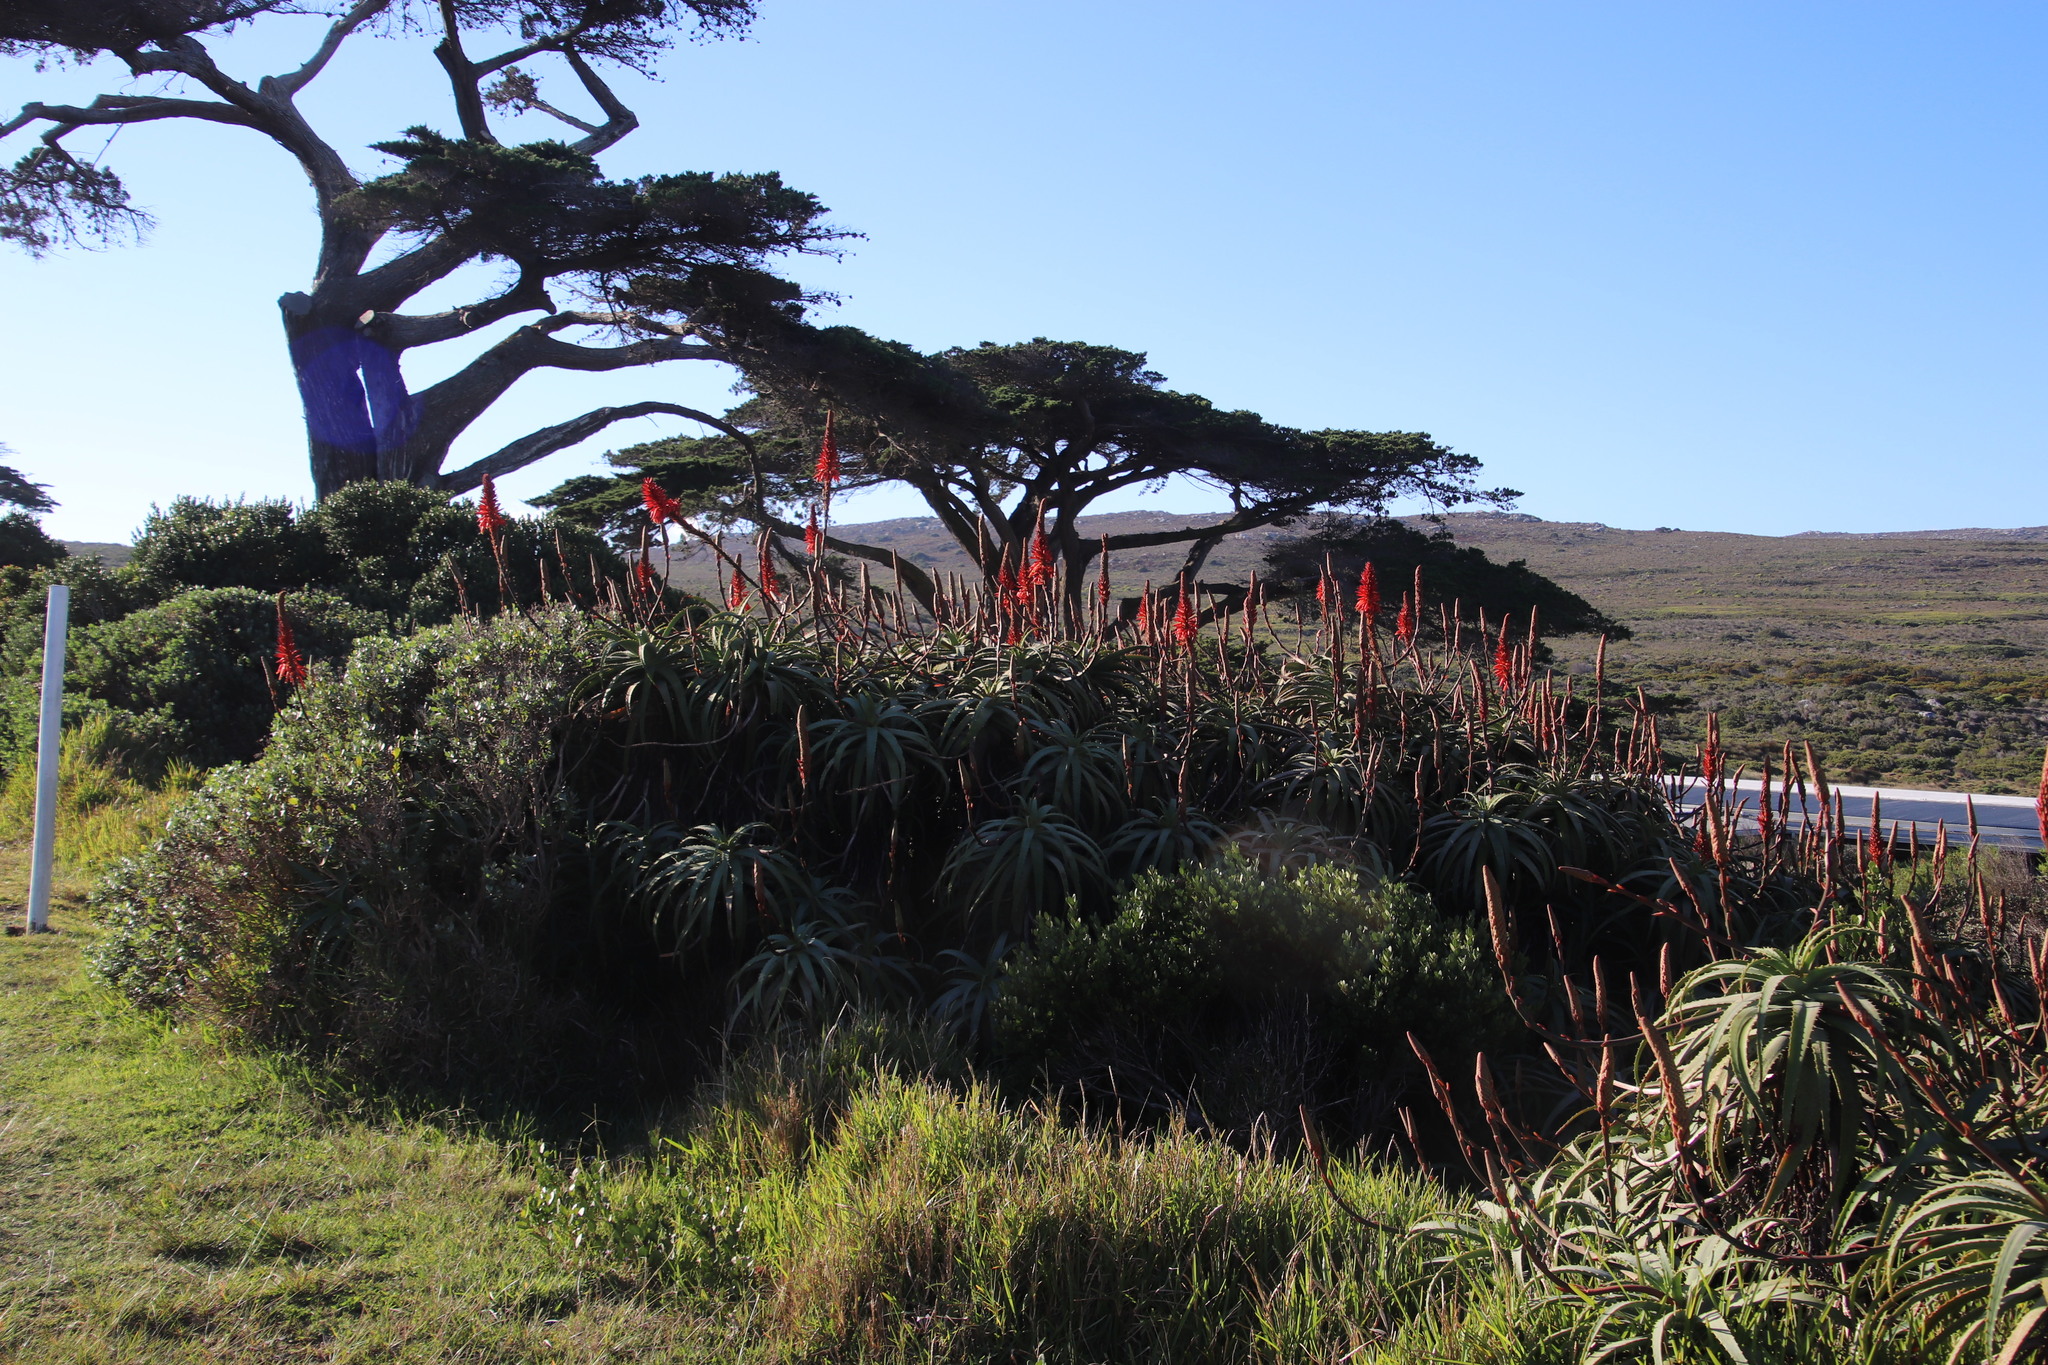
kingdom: Plantae
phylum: Tracheophyta
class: Liliopsida
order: Asparagales
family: Asphodelaceae
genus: Aloe
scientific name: Aloe arborescens
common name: Candelabra aloe
